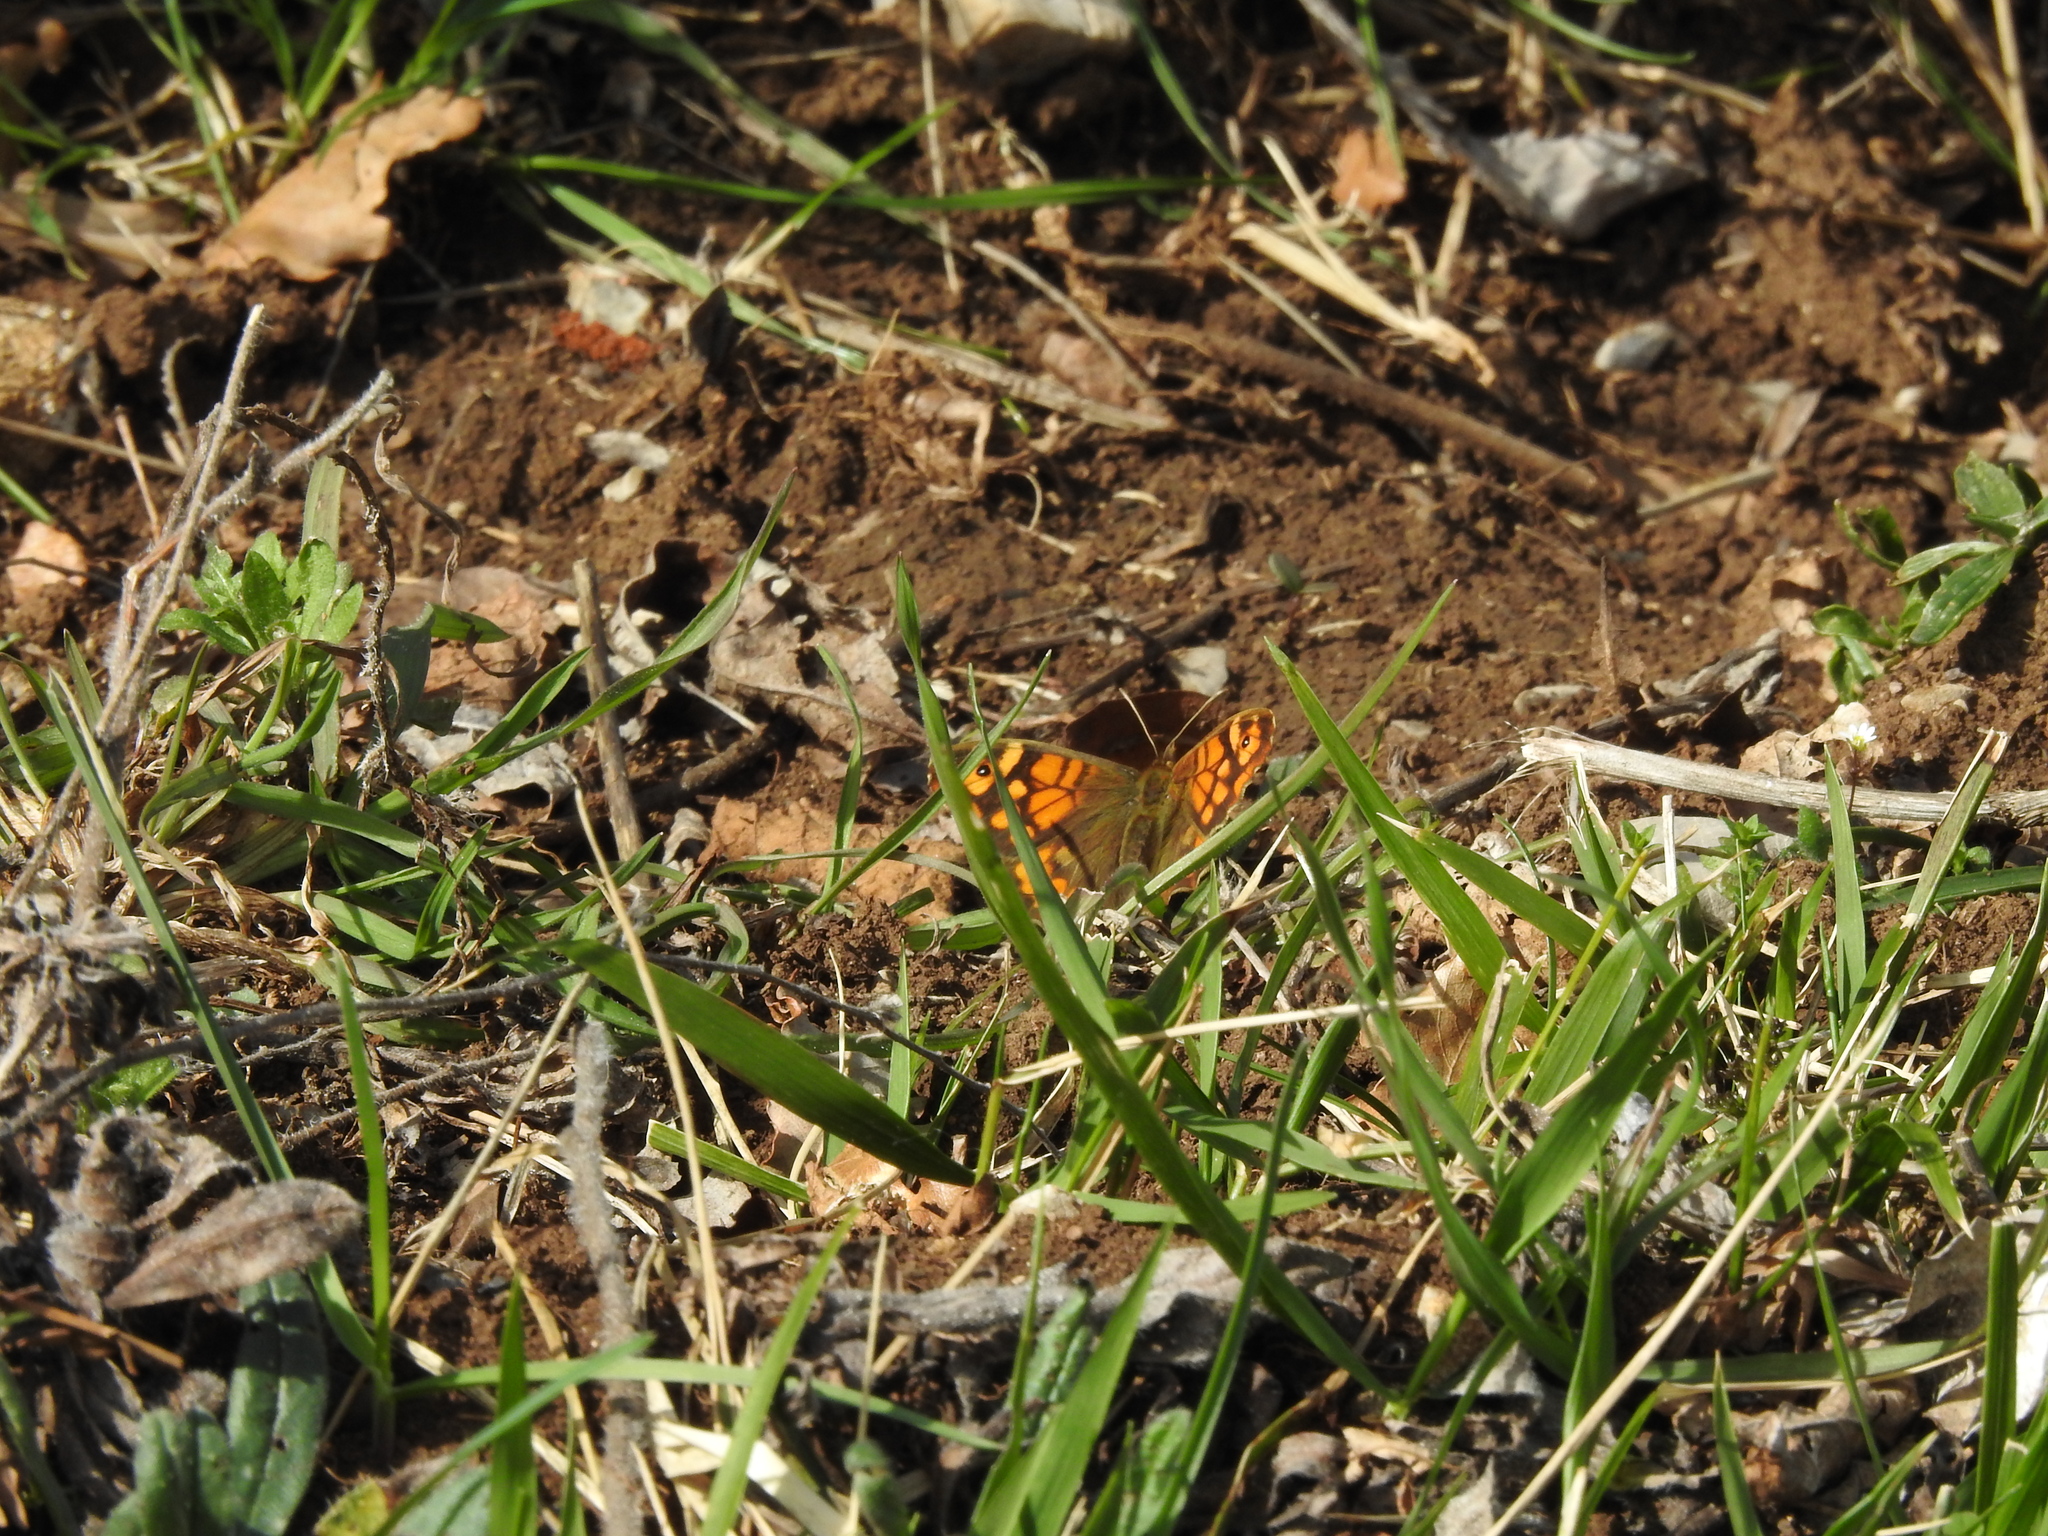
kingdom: Animalia
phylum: Arthropoda
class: Insecta
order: Lepidoptera
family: Nymphalidae
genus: Pararge
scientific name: Pararge aegeria
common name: Speckled wood
